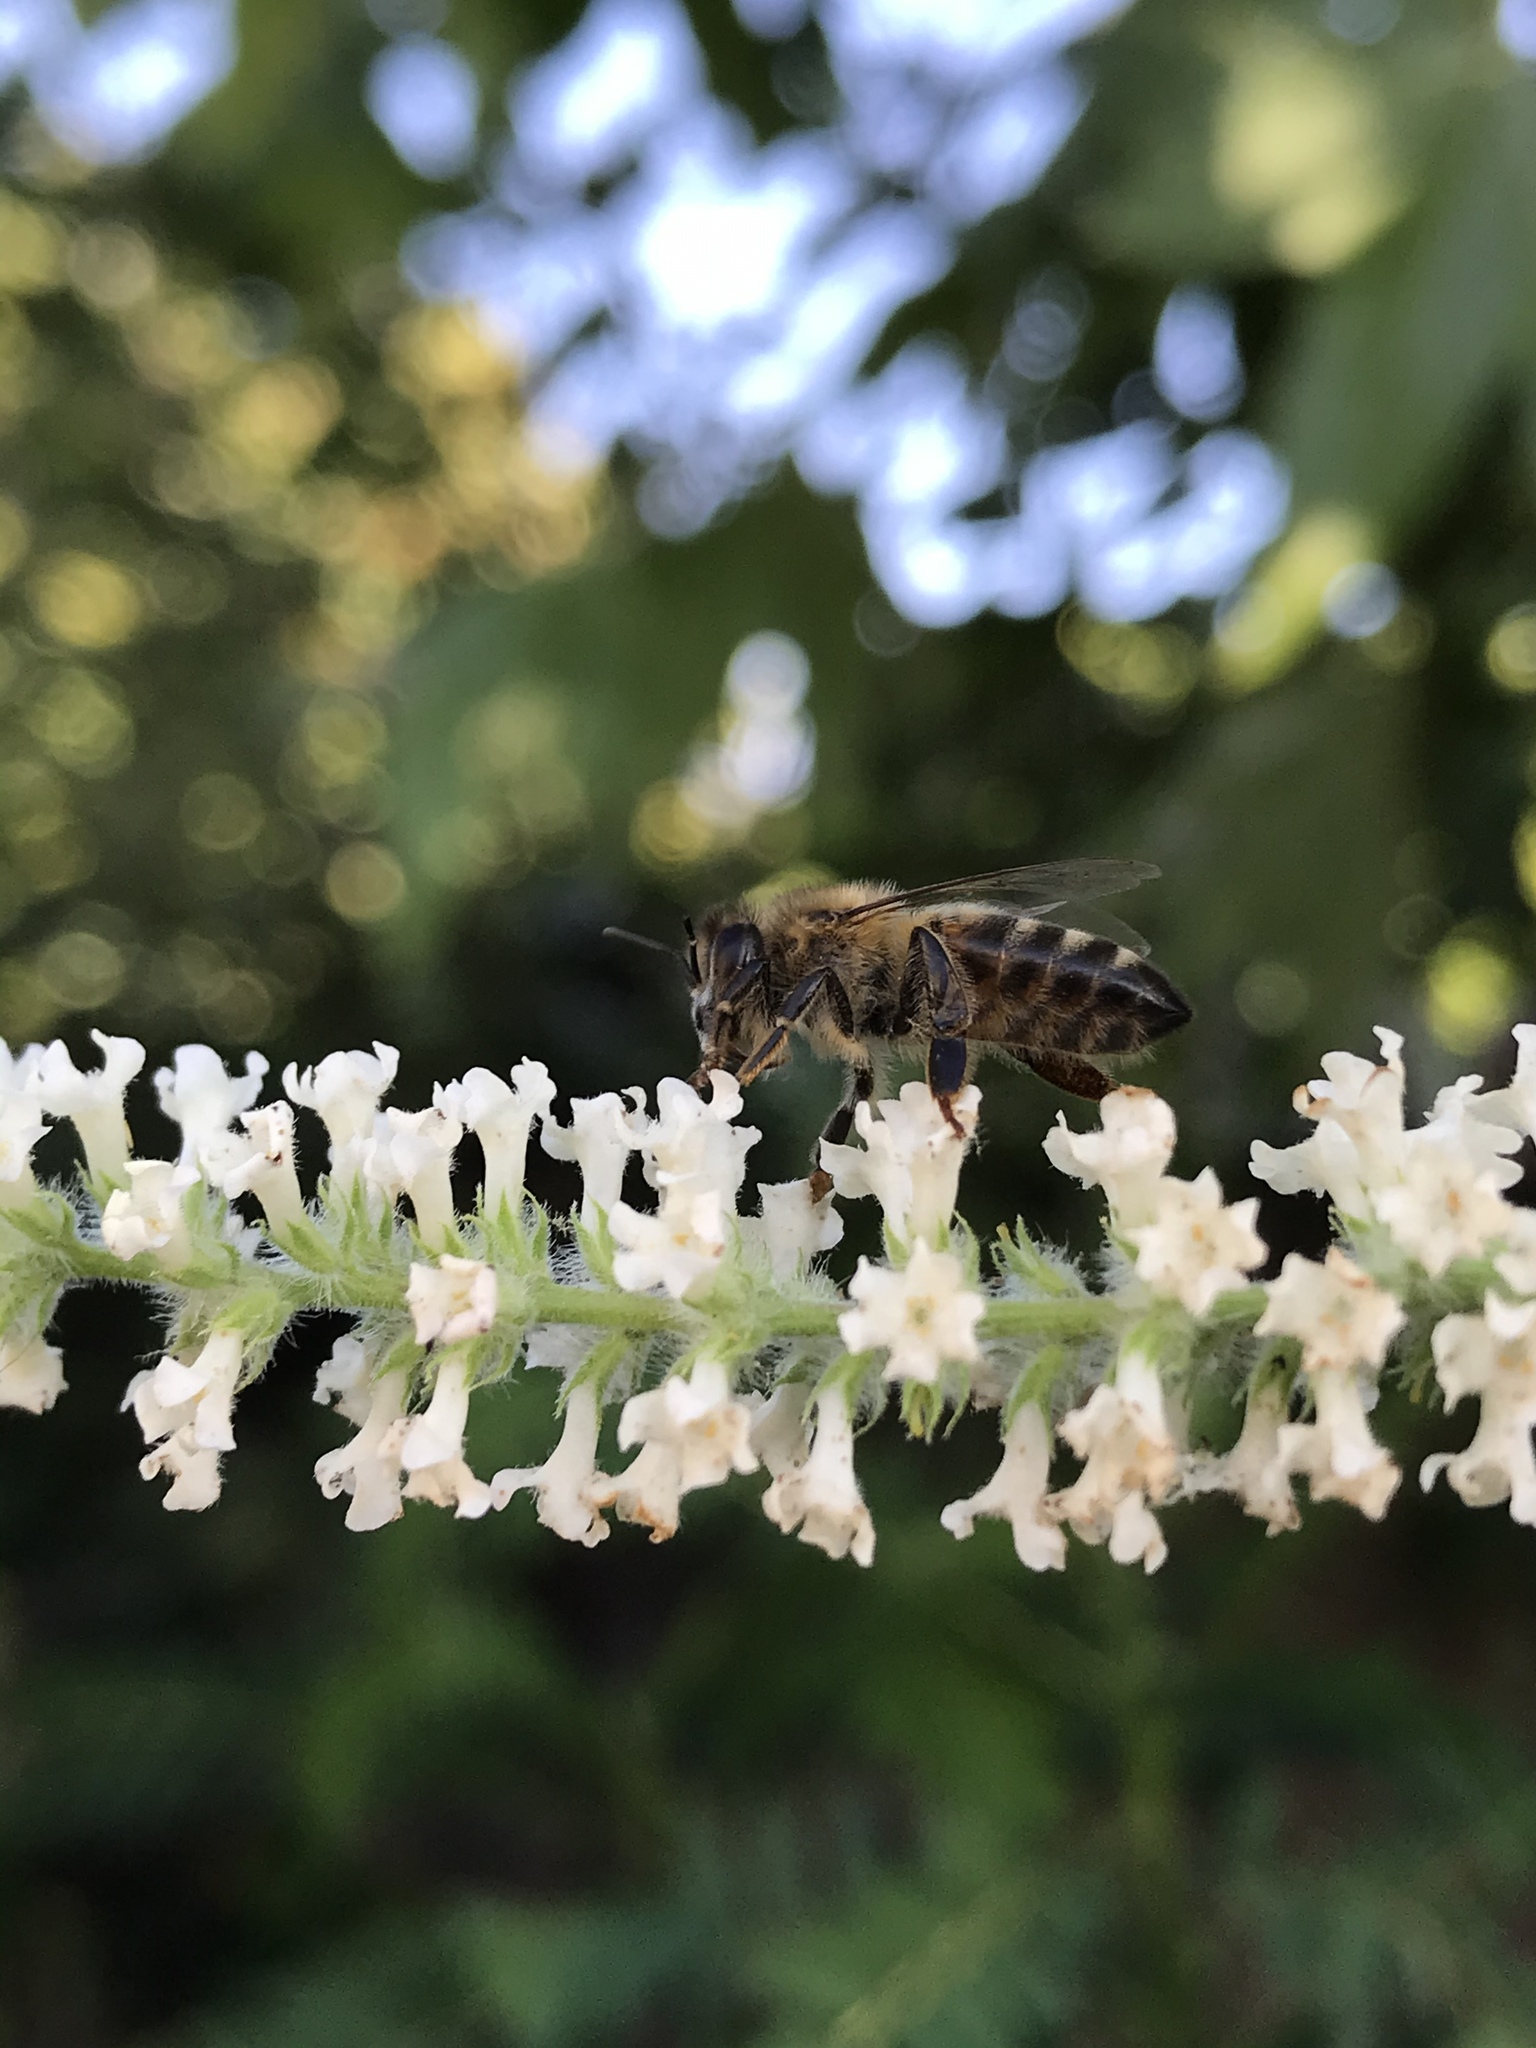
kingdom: Animalia
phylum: Arthropoda
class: Insecta
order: Hymenoptera
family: Apidae
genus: Apis
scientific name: Apis mellifera
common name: Honey bee
